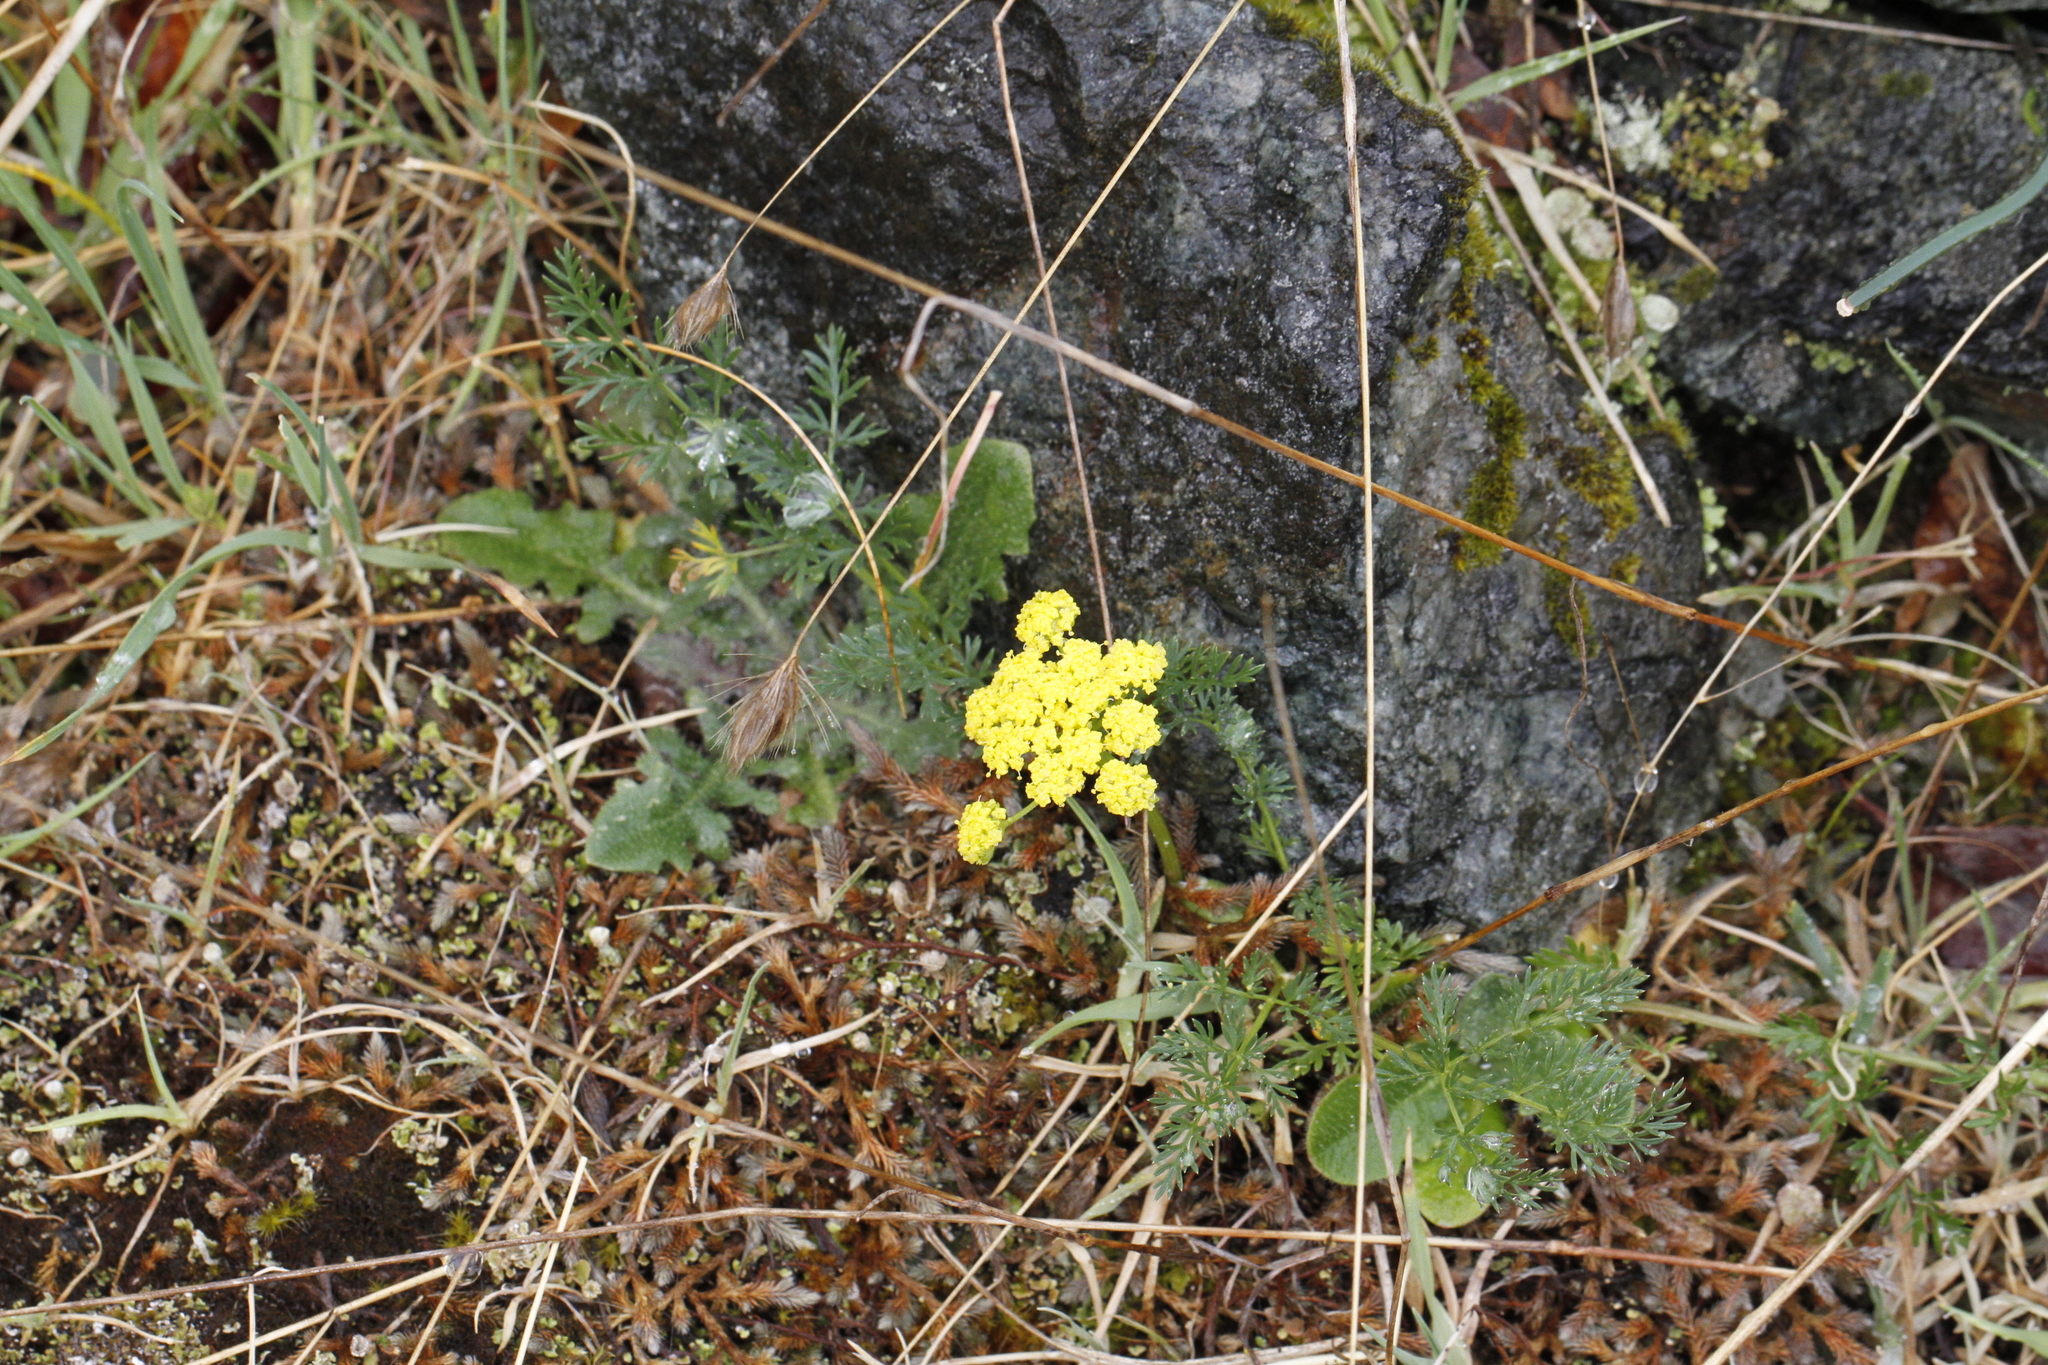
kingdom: Plantae
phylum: Tracheophyta
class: Magnoliopsida
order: Apiales
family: Apiaceae
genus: Lomatium
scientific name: Lomatium utriculatum
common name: Fine-leaf desert-parsley
